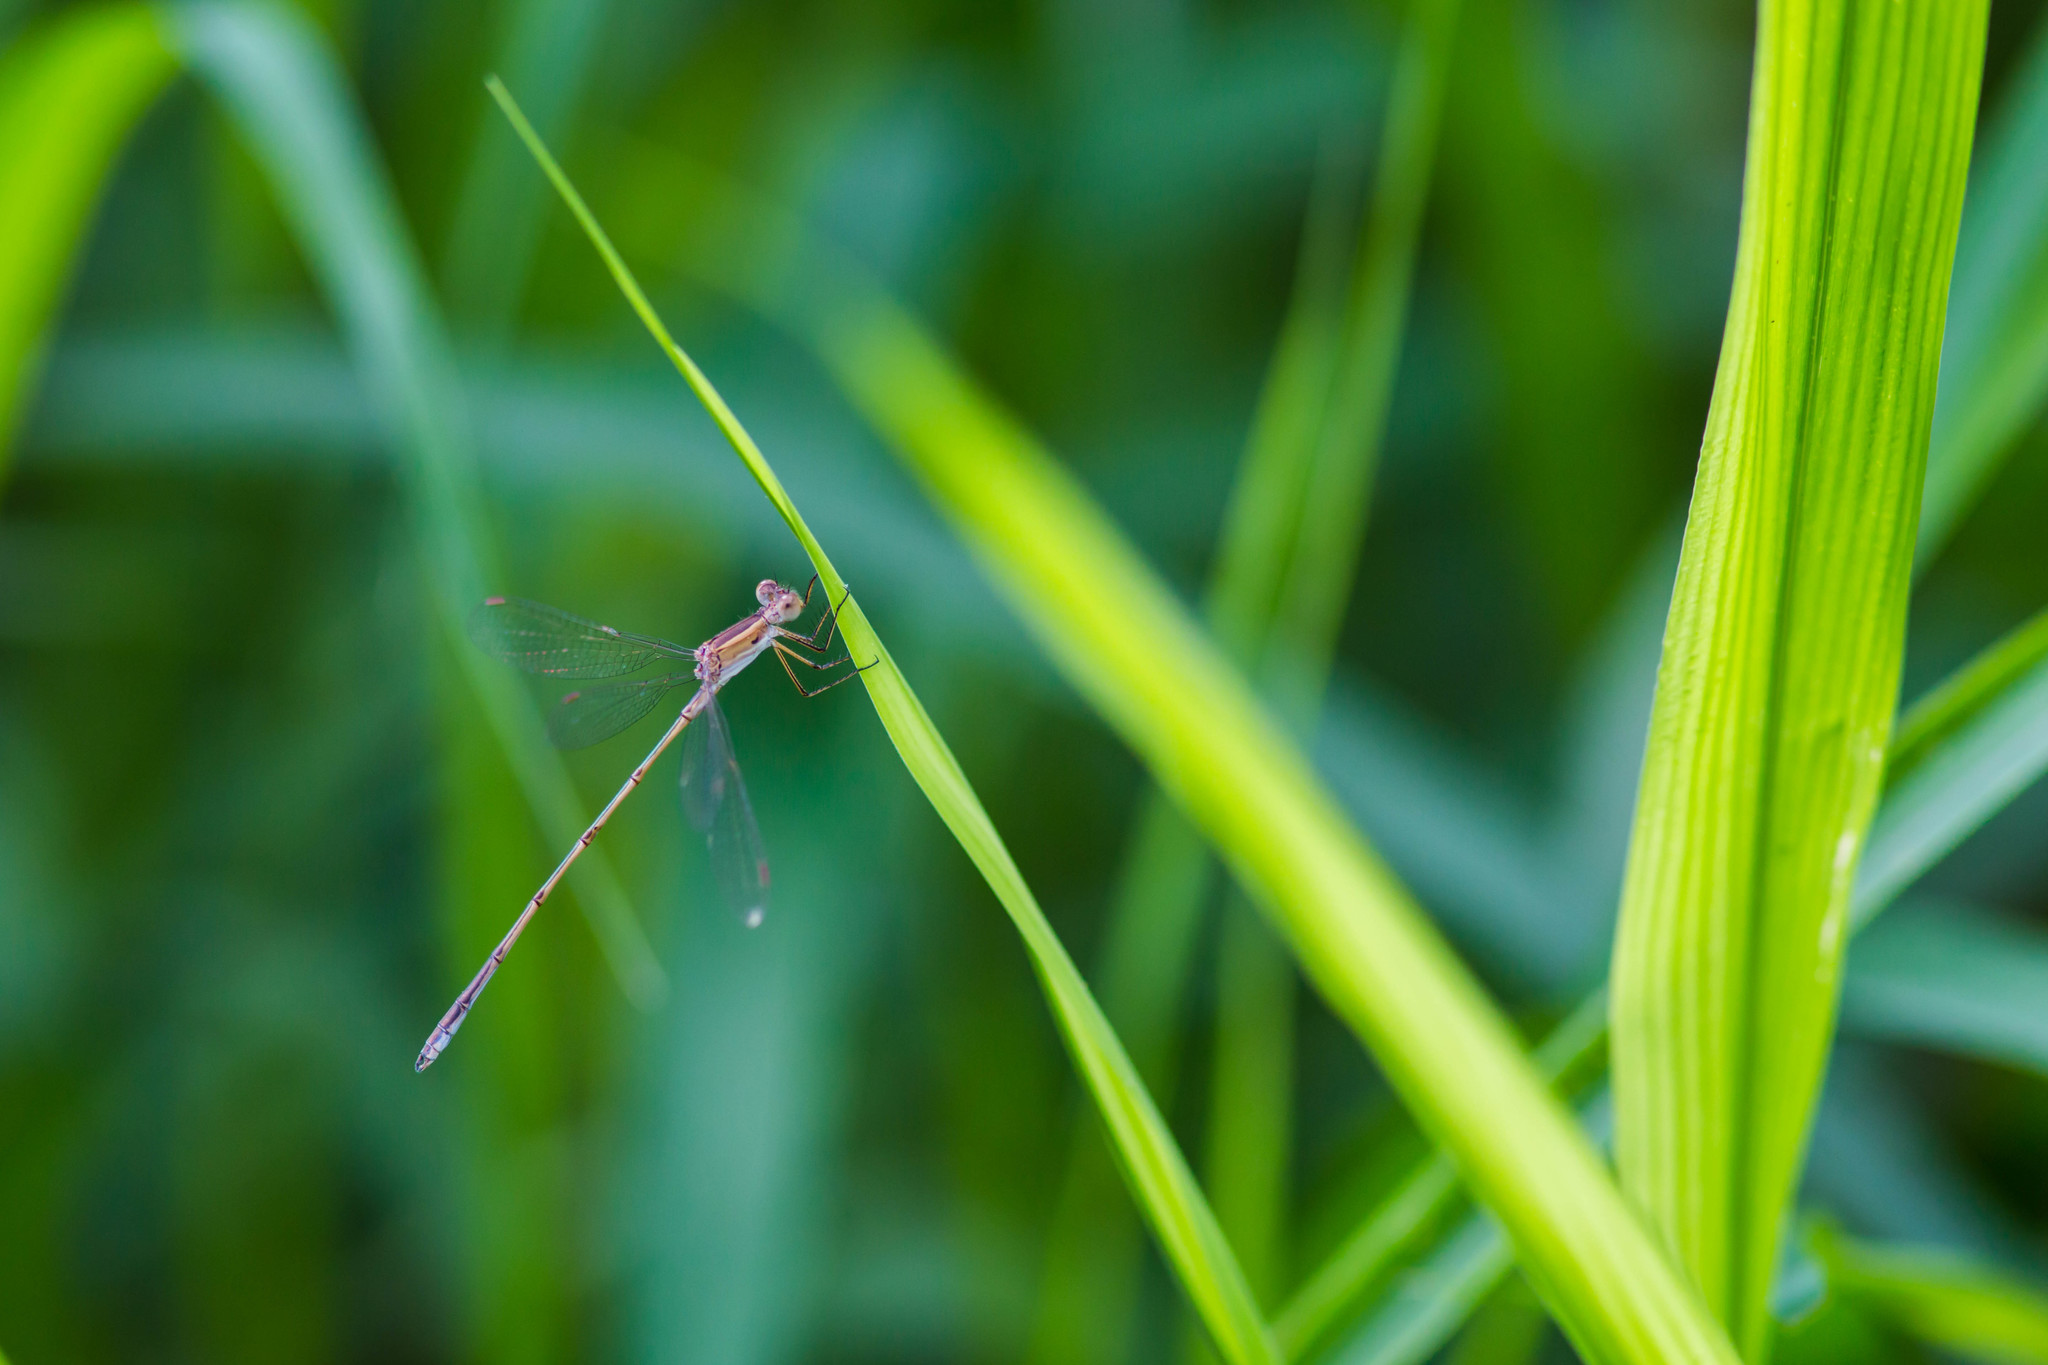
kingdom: Animalia
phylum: Arthropoda
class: Insecta
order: Odonata
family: Lestidae
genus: Lestes
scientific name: Lestes alacer
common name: Plateau spreadwing
